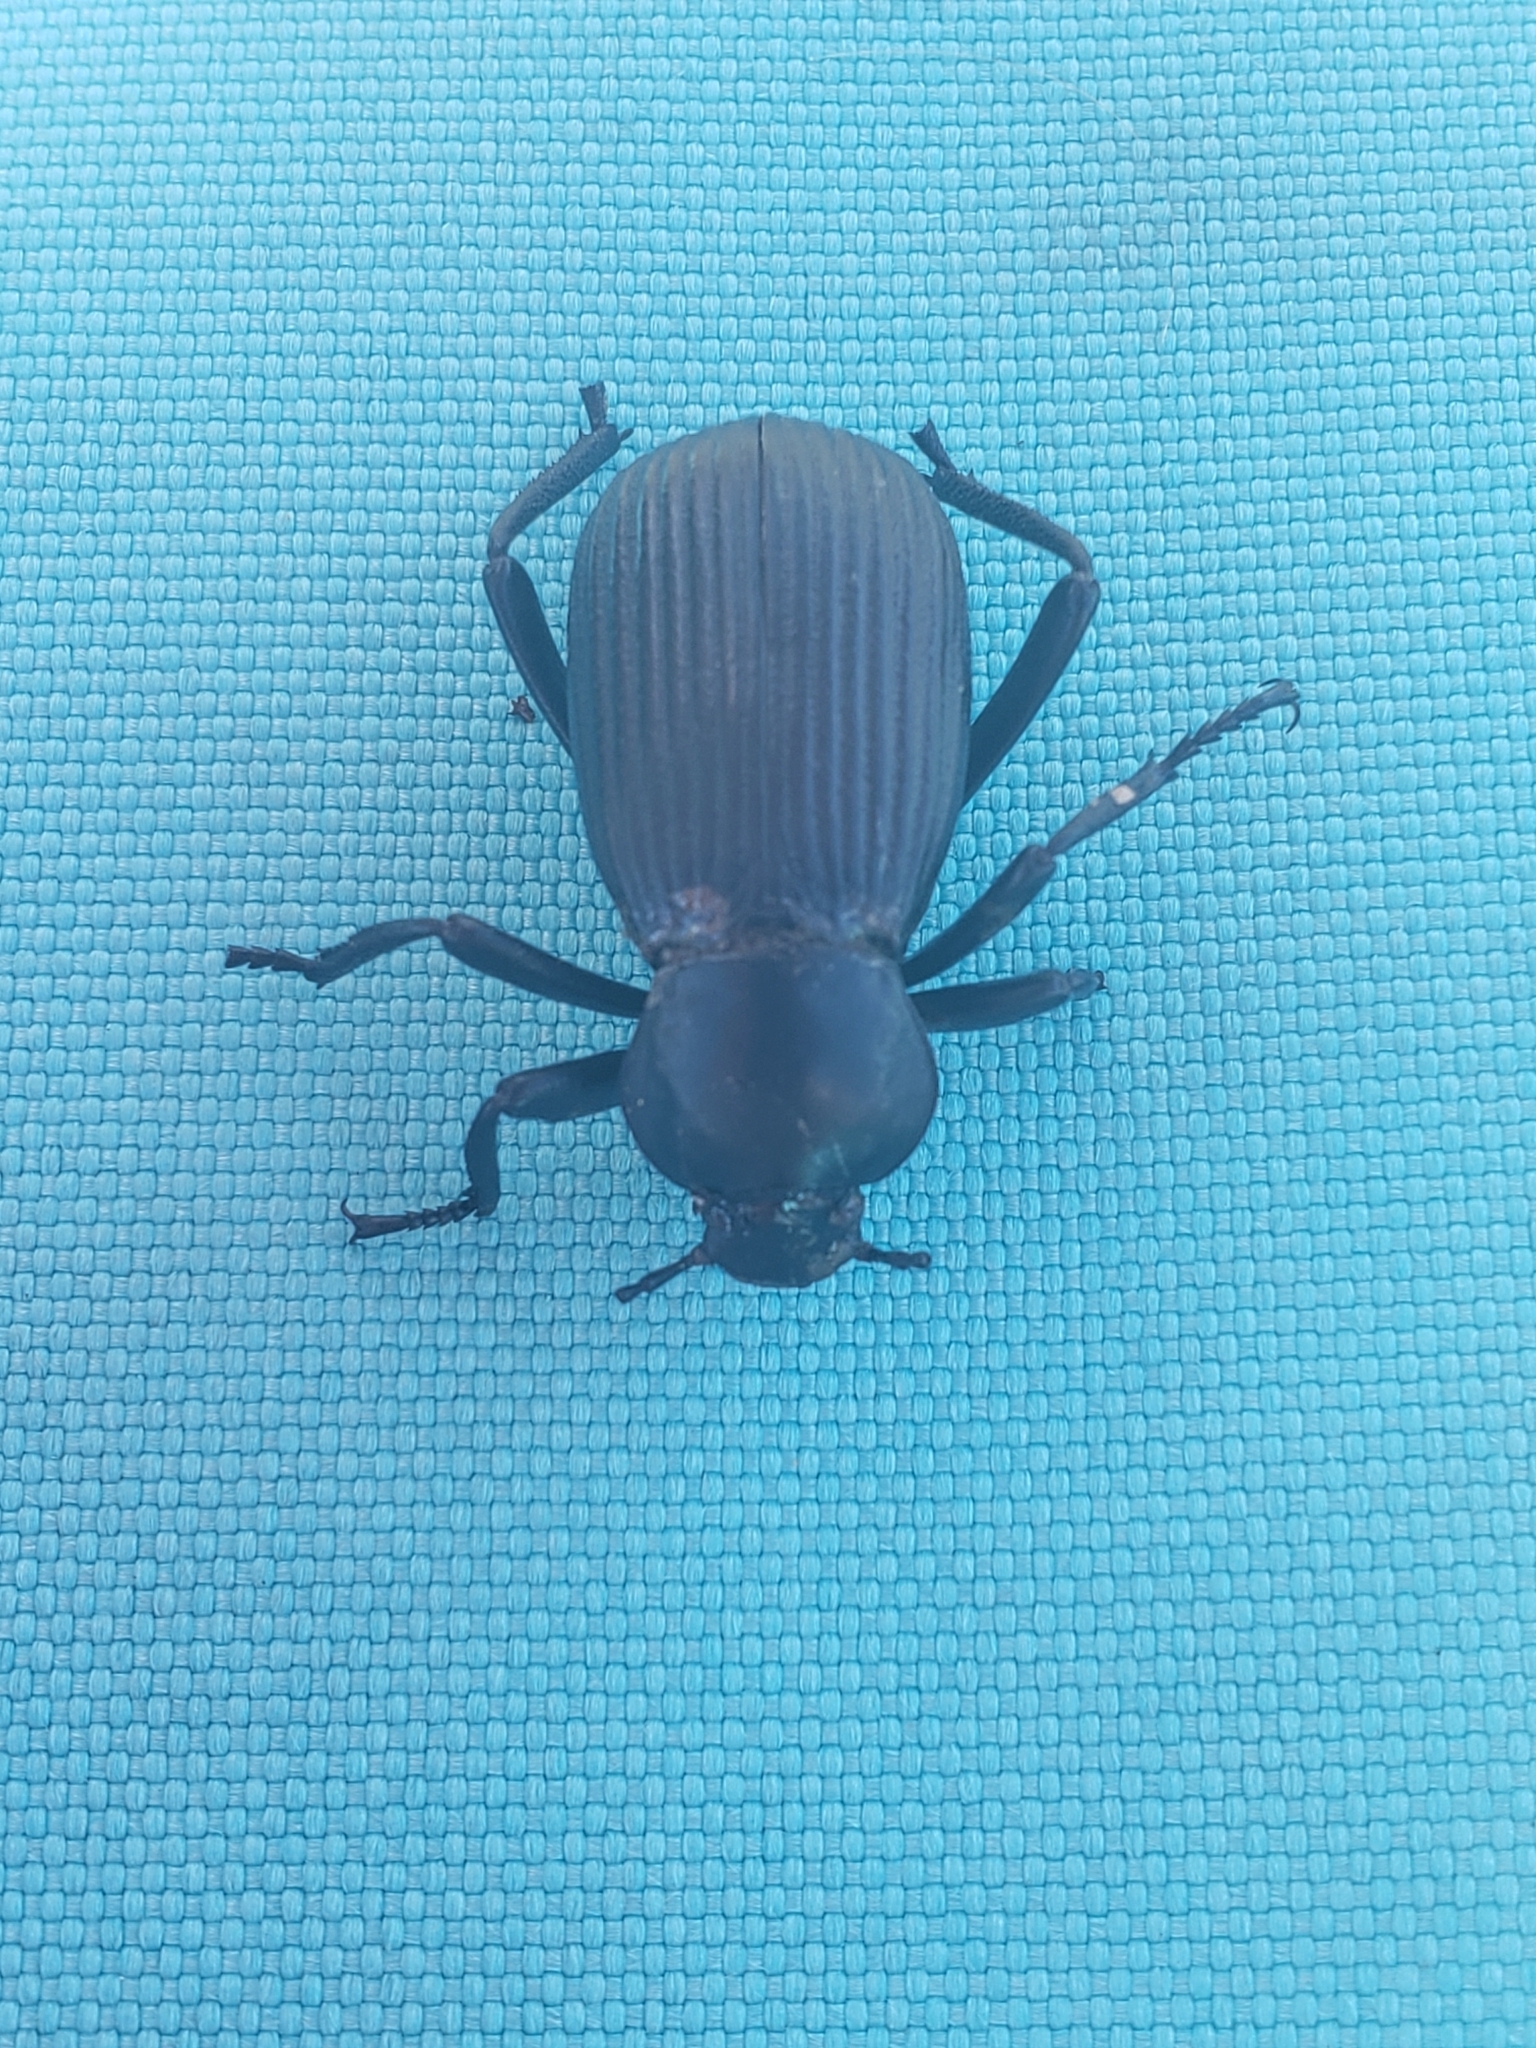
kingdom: Animalia
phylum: Arthropoda
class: Insecta
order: Coleoptera
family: Tenebrionidae
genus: Eleodes
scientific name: Eleodes obscura
